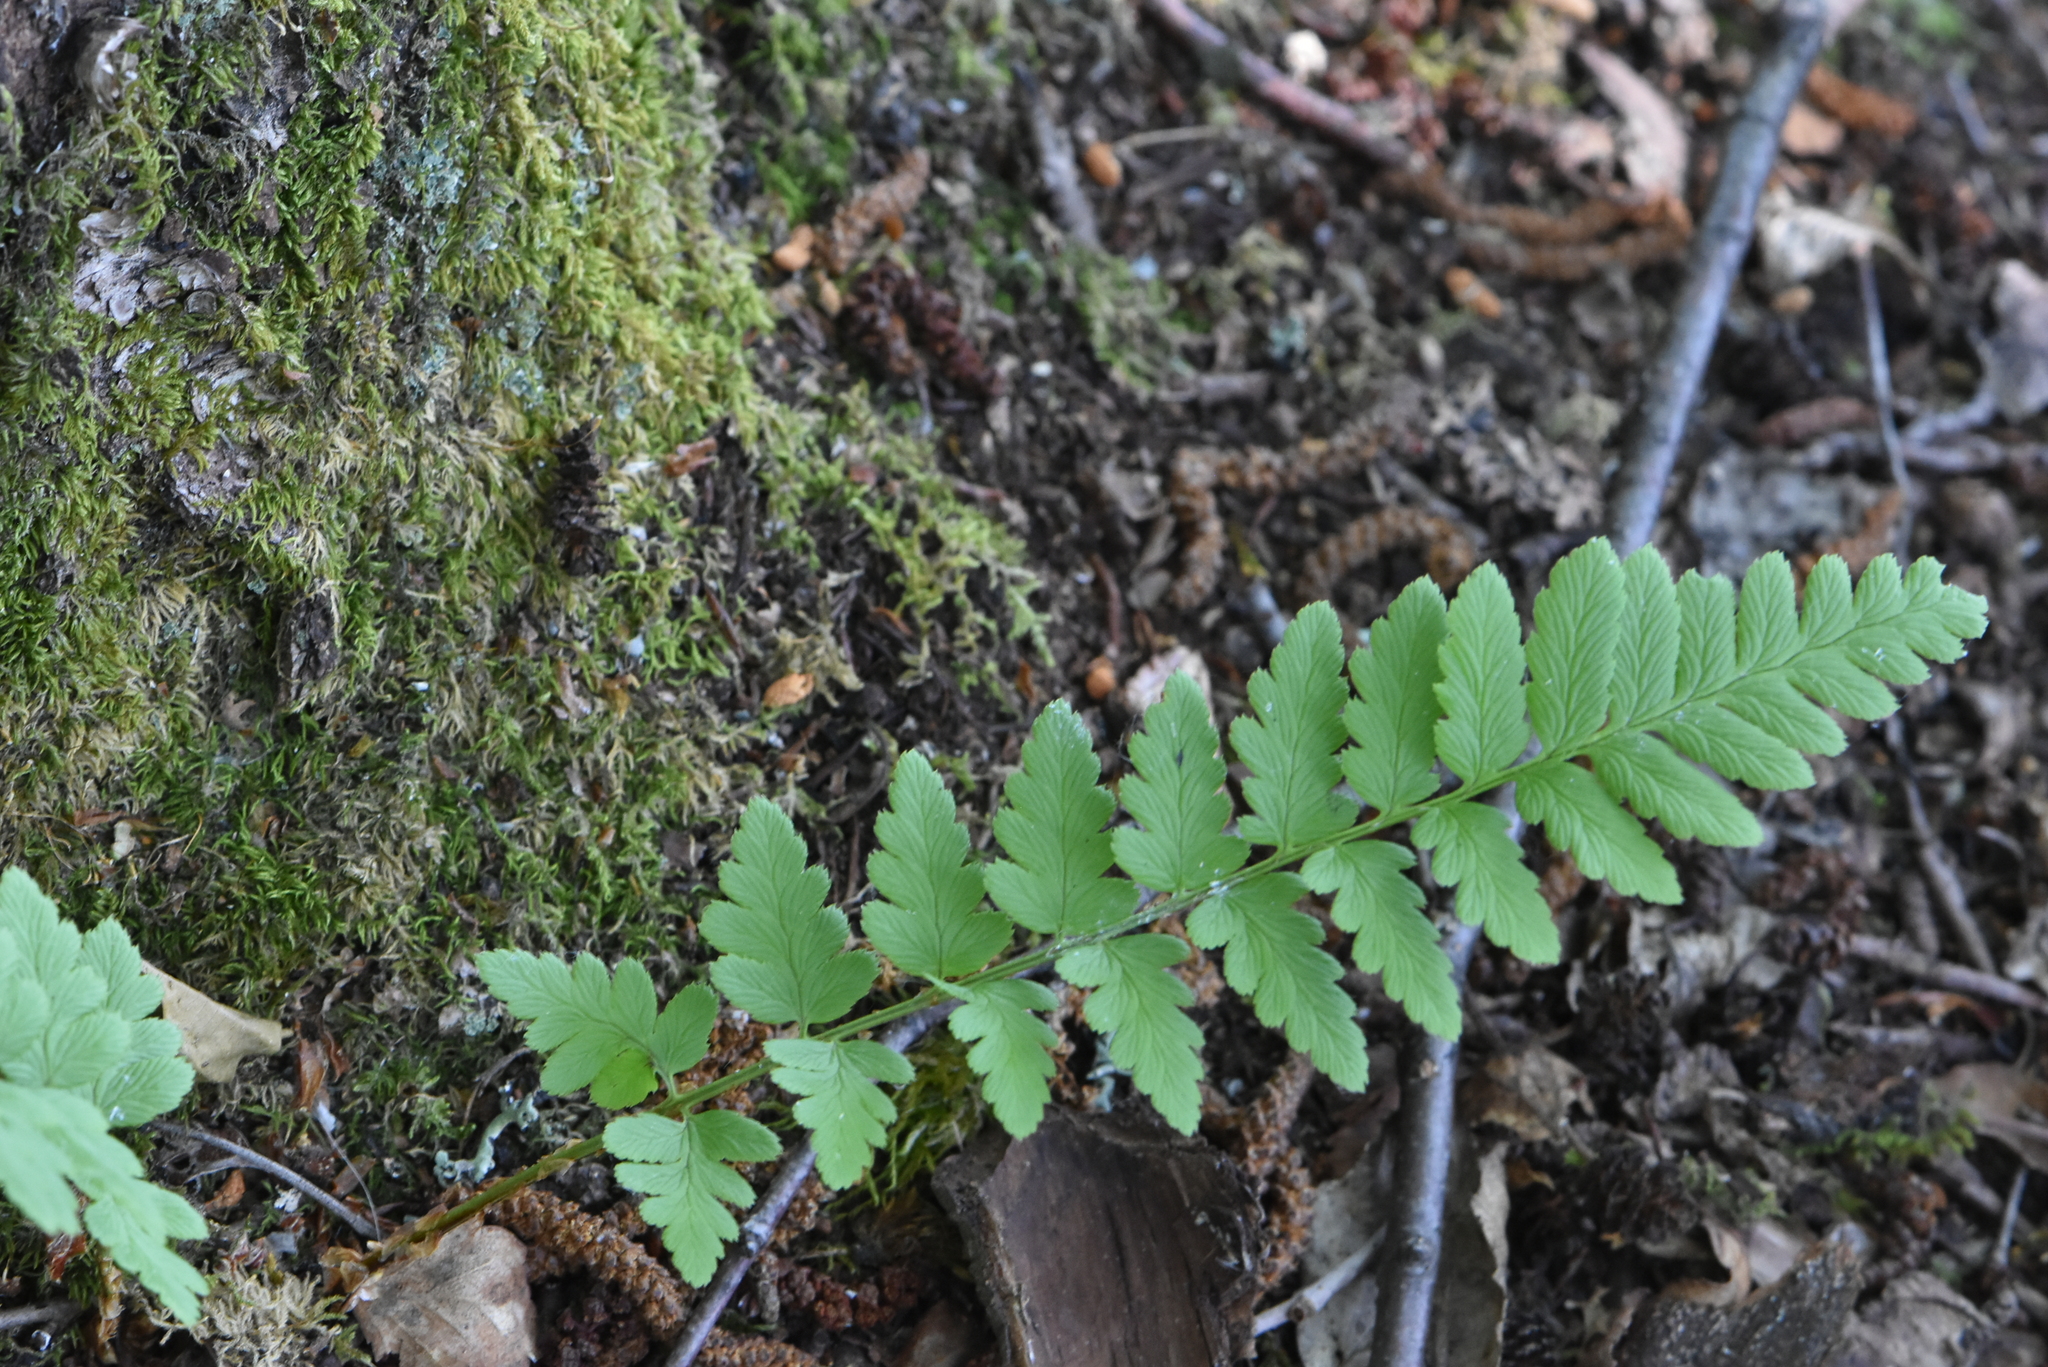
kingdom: Plantae
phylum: Tracheophyta
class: Polypodiopsida
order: Polypodiales
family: Dryopteridaceae
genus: Dryopteris
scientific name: Dryopteris cristata
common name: Crested wood fern
